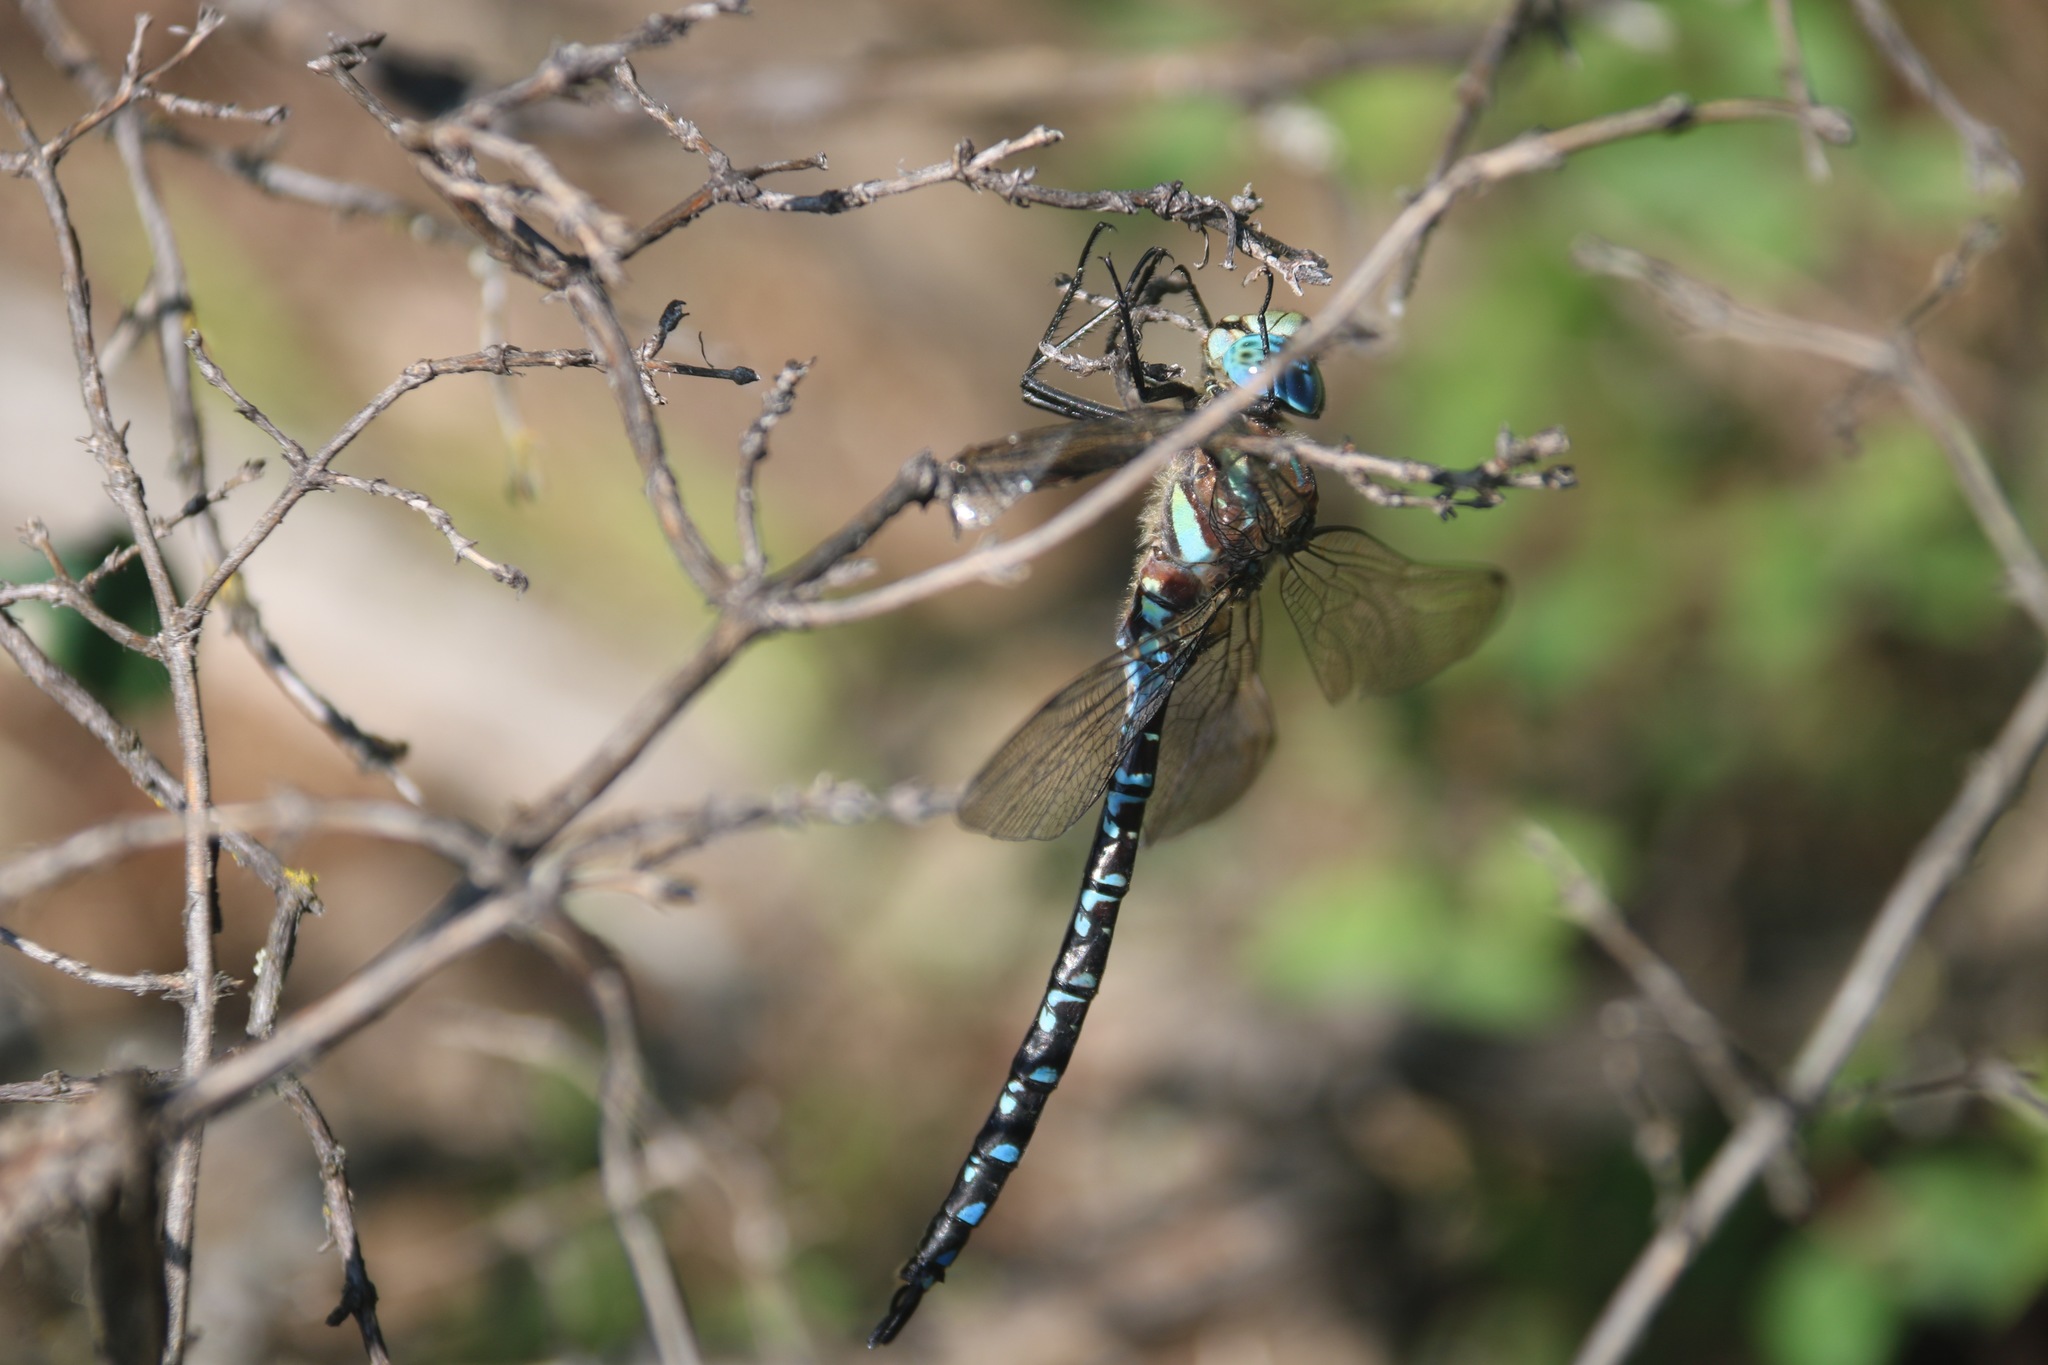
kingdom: Animalia
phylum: Arthropoda
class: Insecta
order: Odonata
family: Aeshnidae
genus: Aeshna
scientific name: Aeshna crenata
